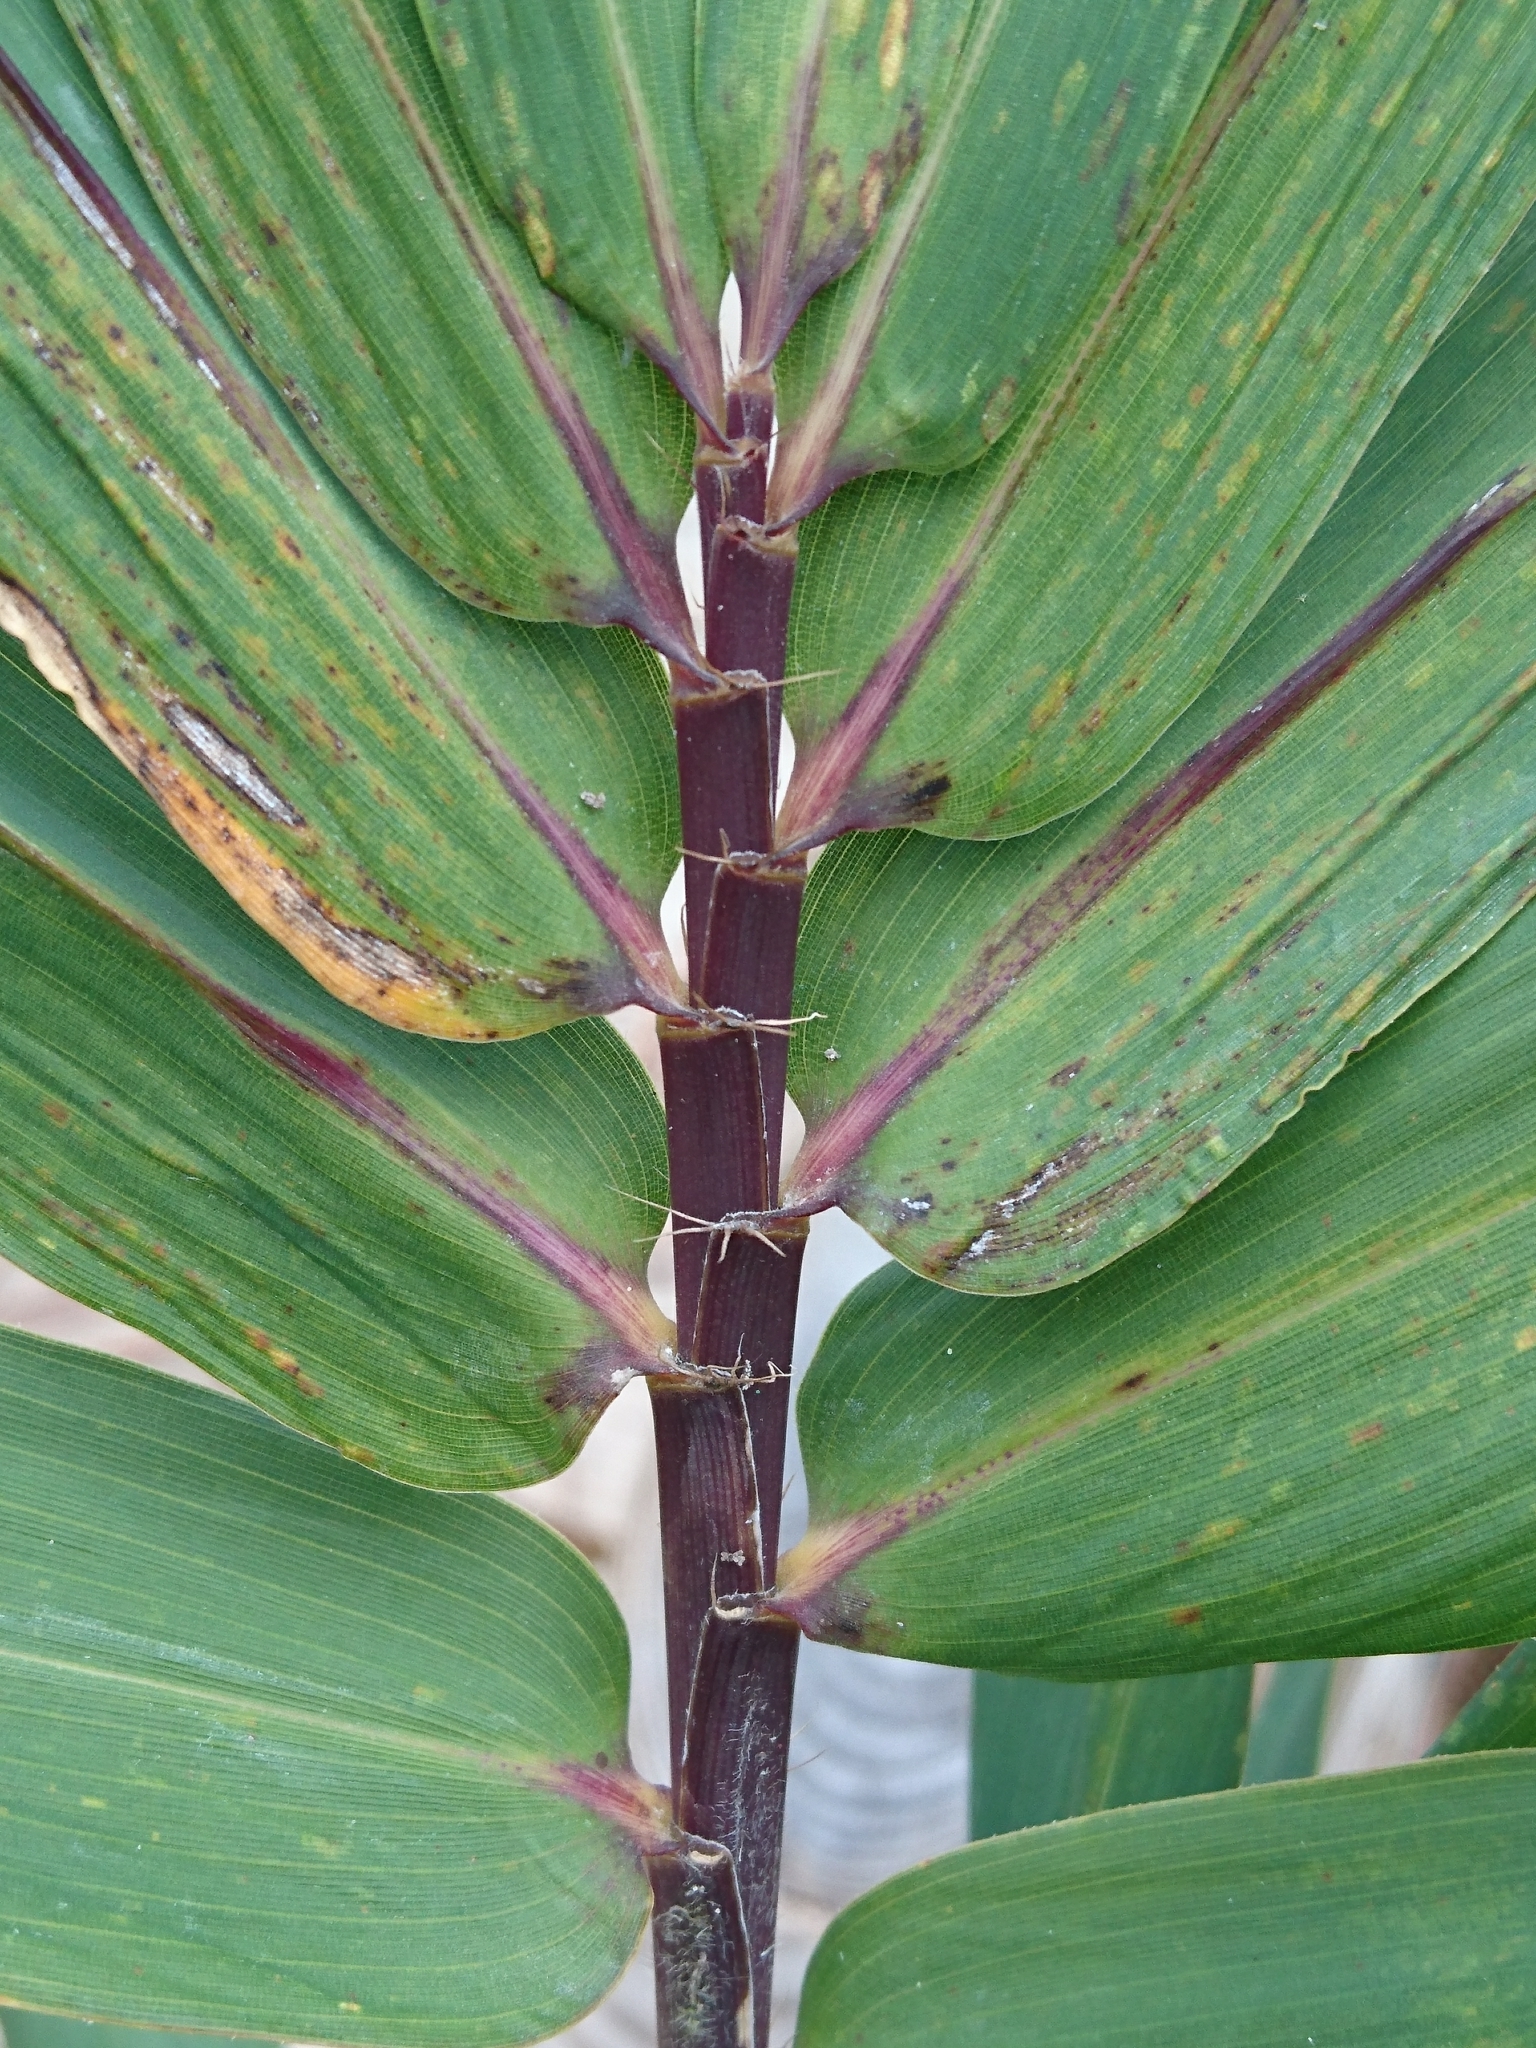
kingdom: Plantae
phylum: Tracheophyta
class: Liliopsida
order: Poales
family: Poaceae
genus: Arundinaria
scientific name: Arundinaria tecta
